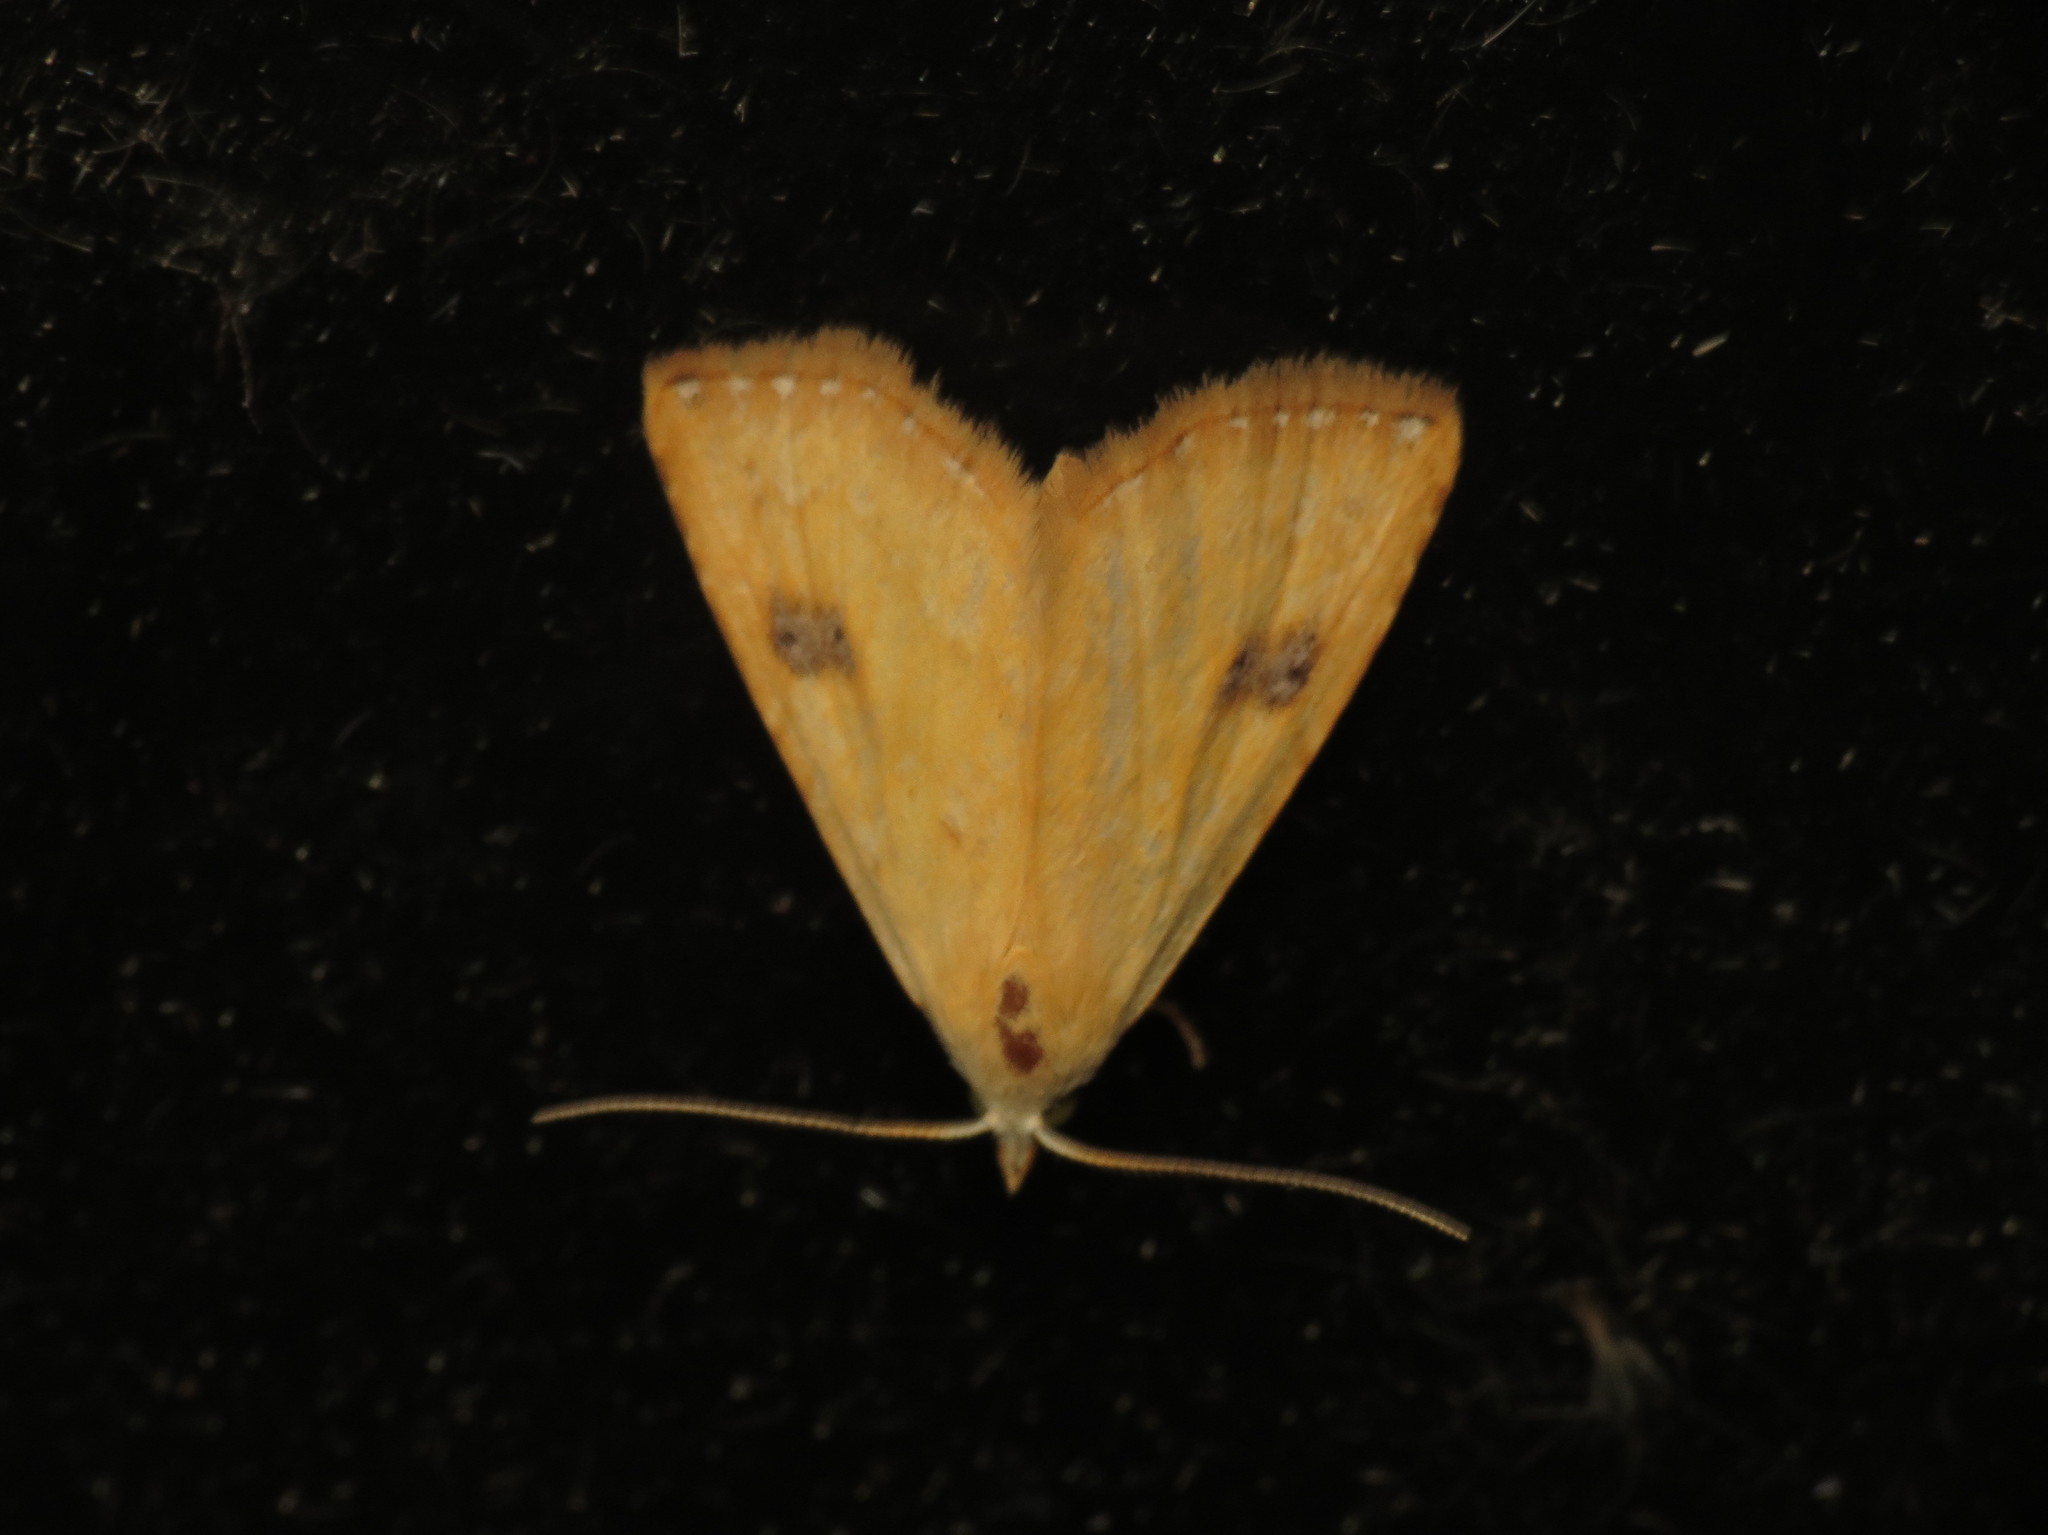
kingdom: Animalia
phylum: Arthropoda
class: Insecta
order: Lepidoptera
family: Erebidae
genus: Rivula
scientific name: Rivula sericealis
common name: Straw dot
